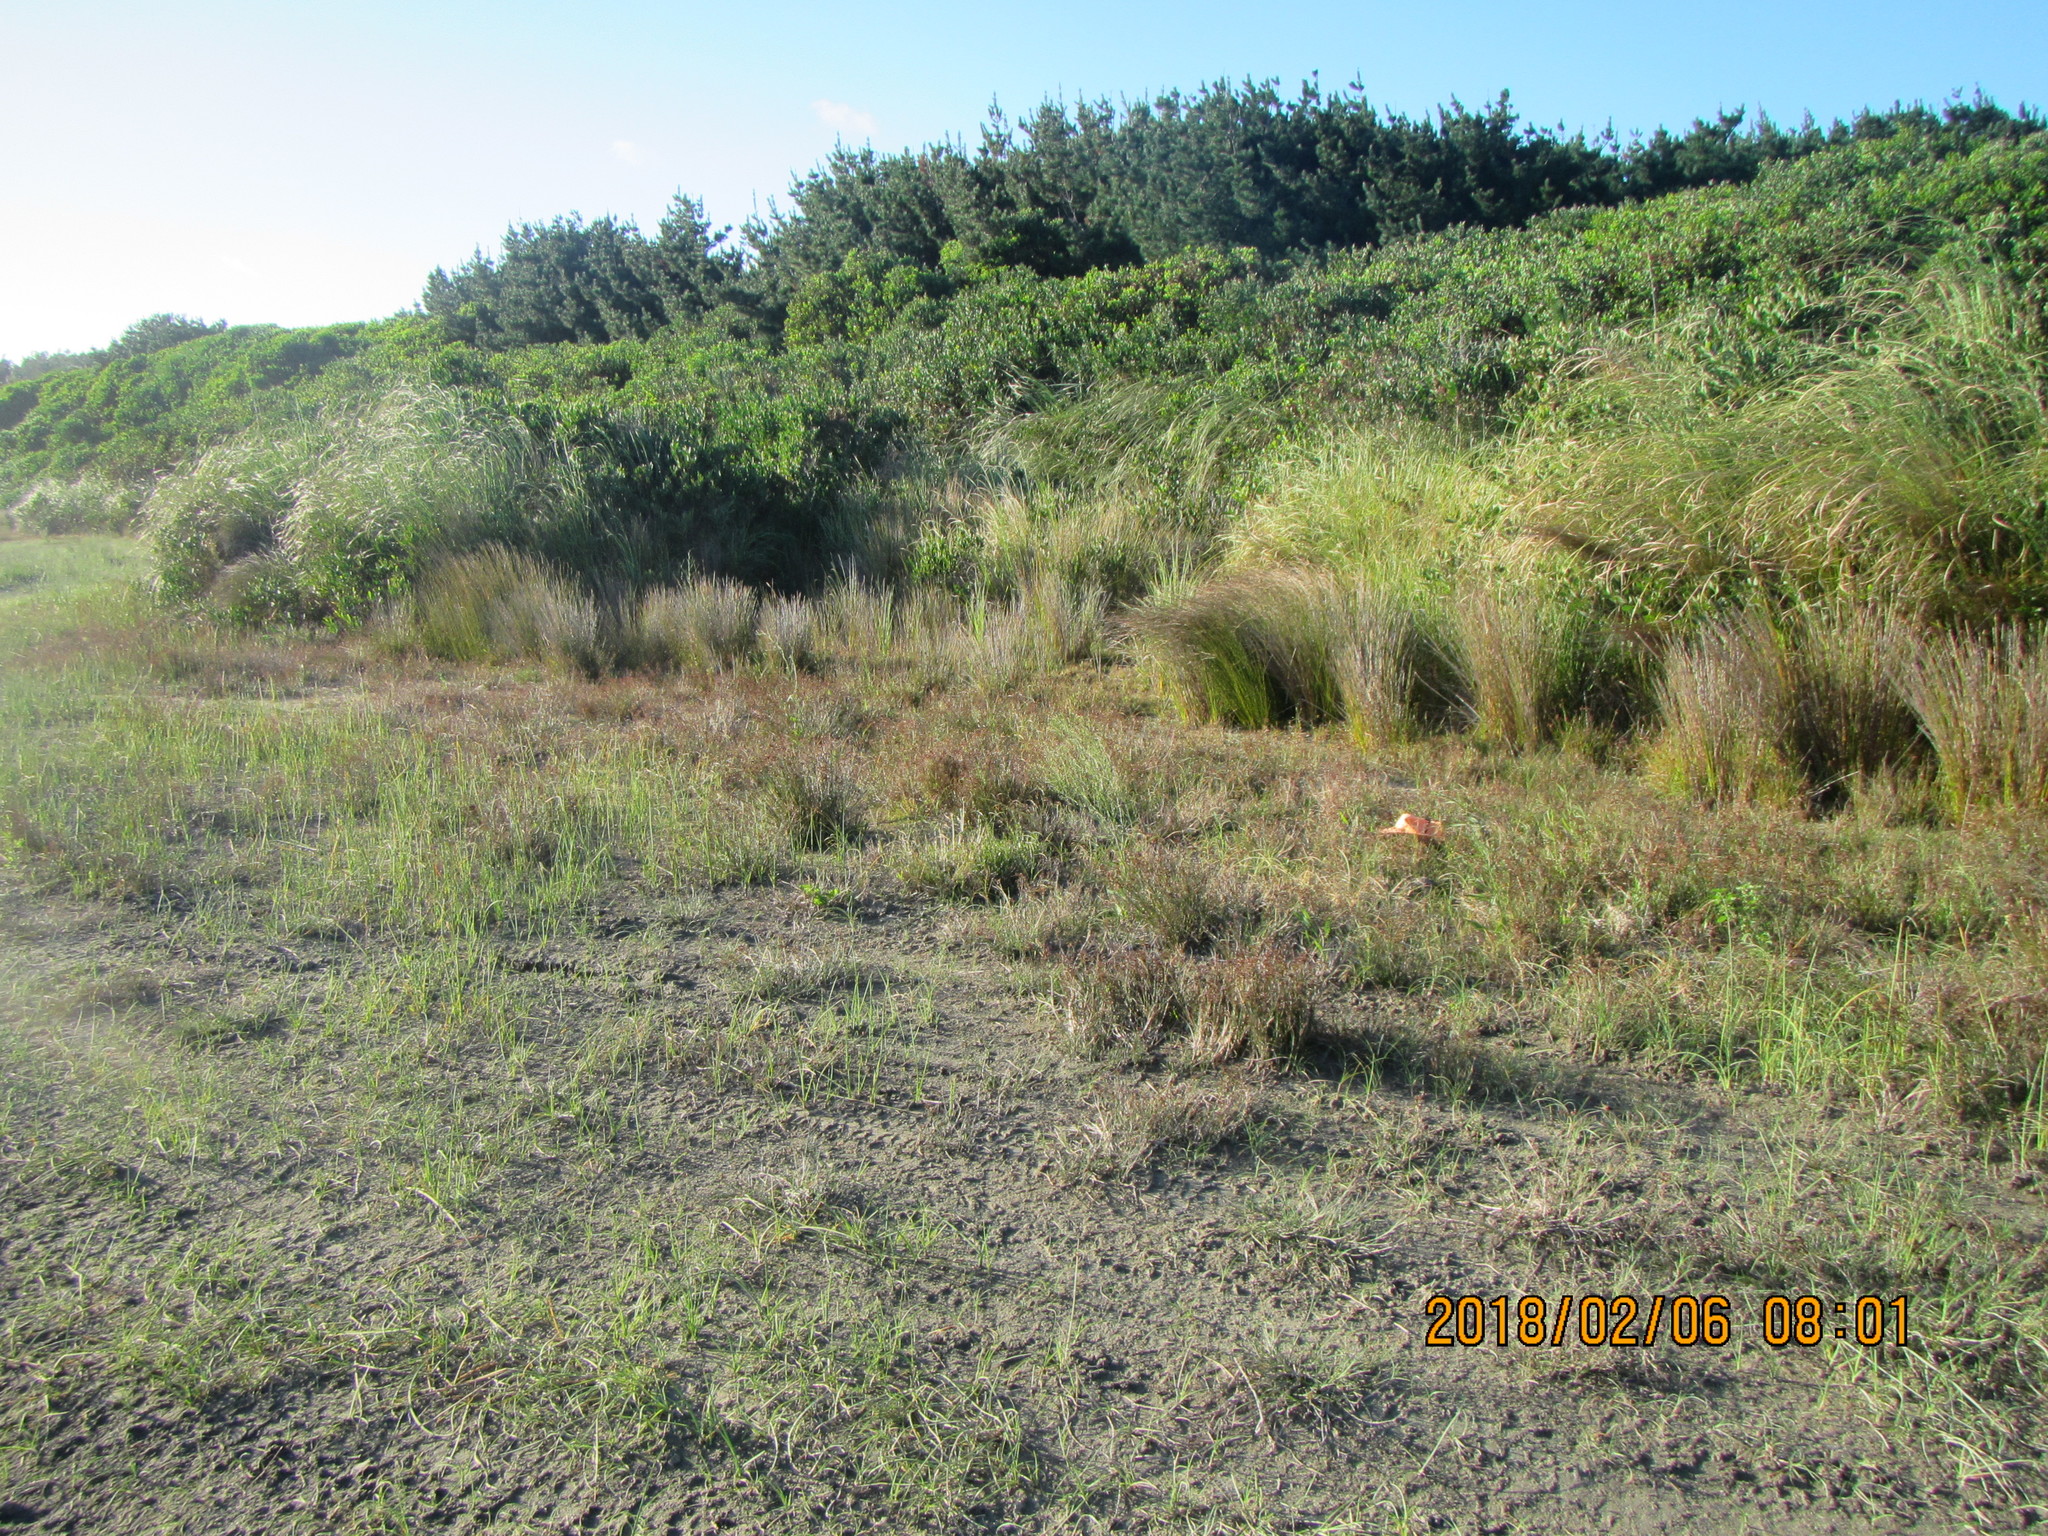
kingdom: Plantae
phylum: Tracheophyta
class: Magnoliopsida
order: Asterales
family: Goodeniaceae
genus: Goodenia
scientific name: Goodenia heenanii
